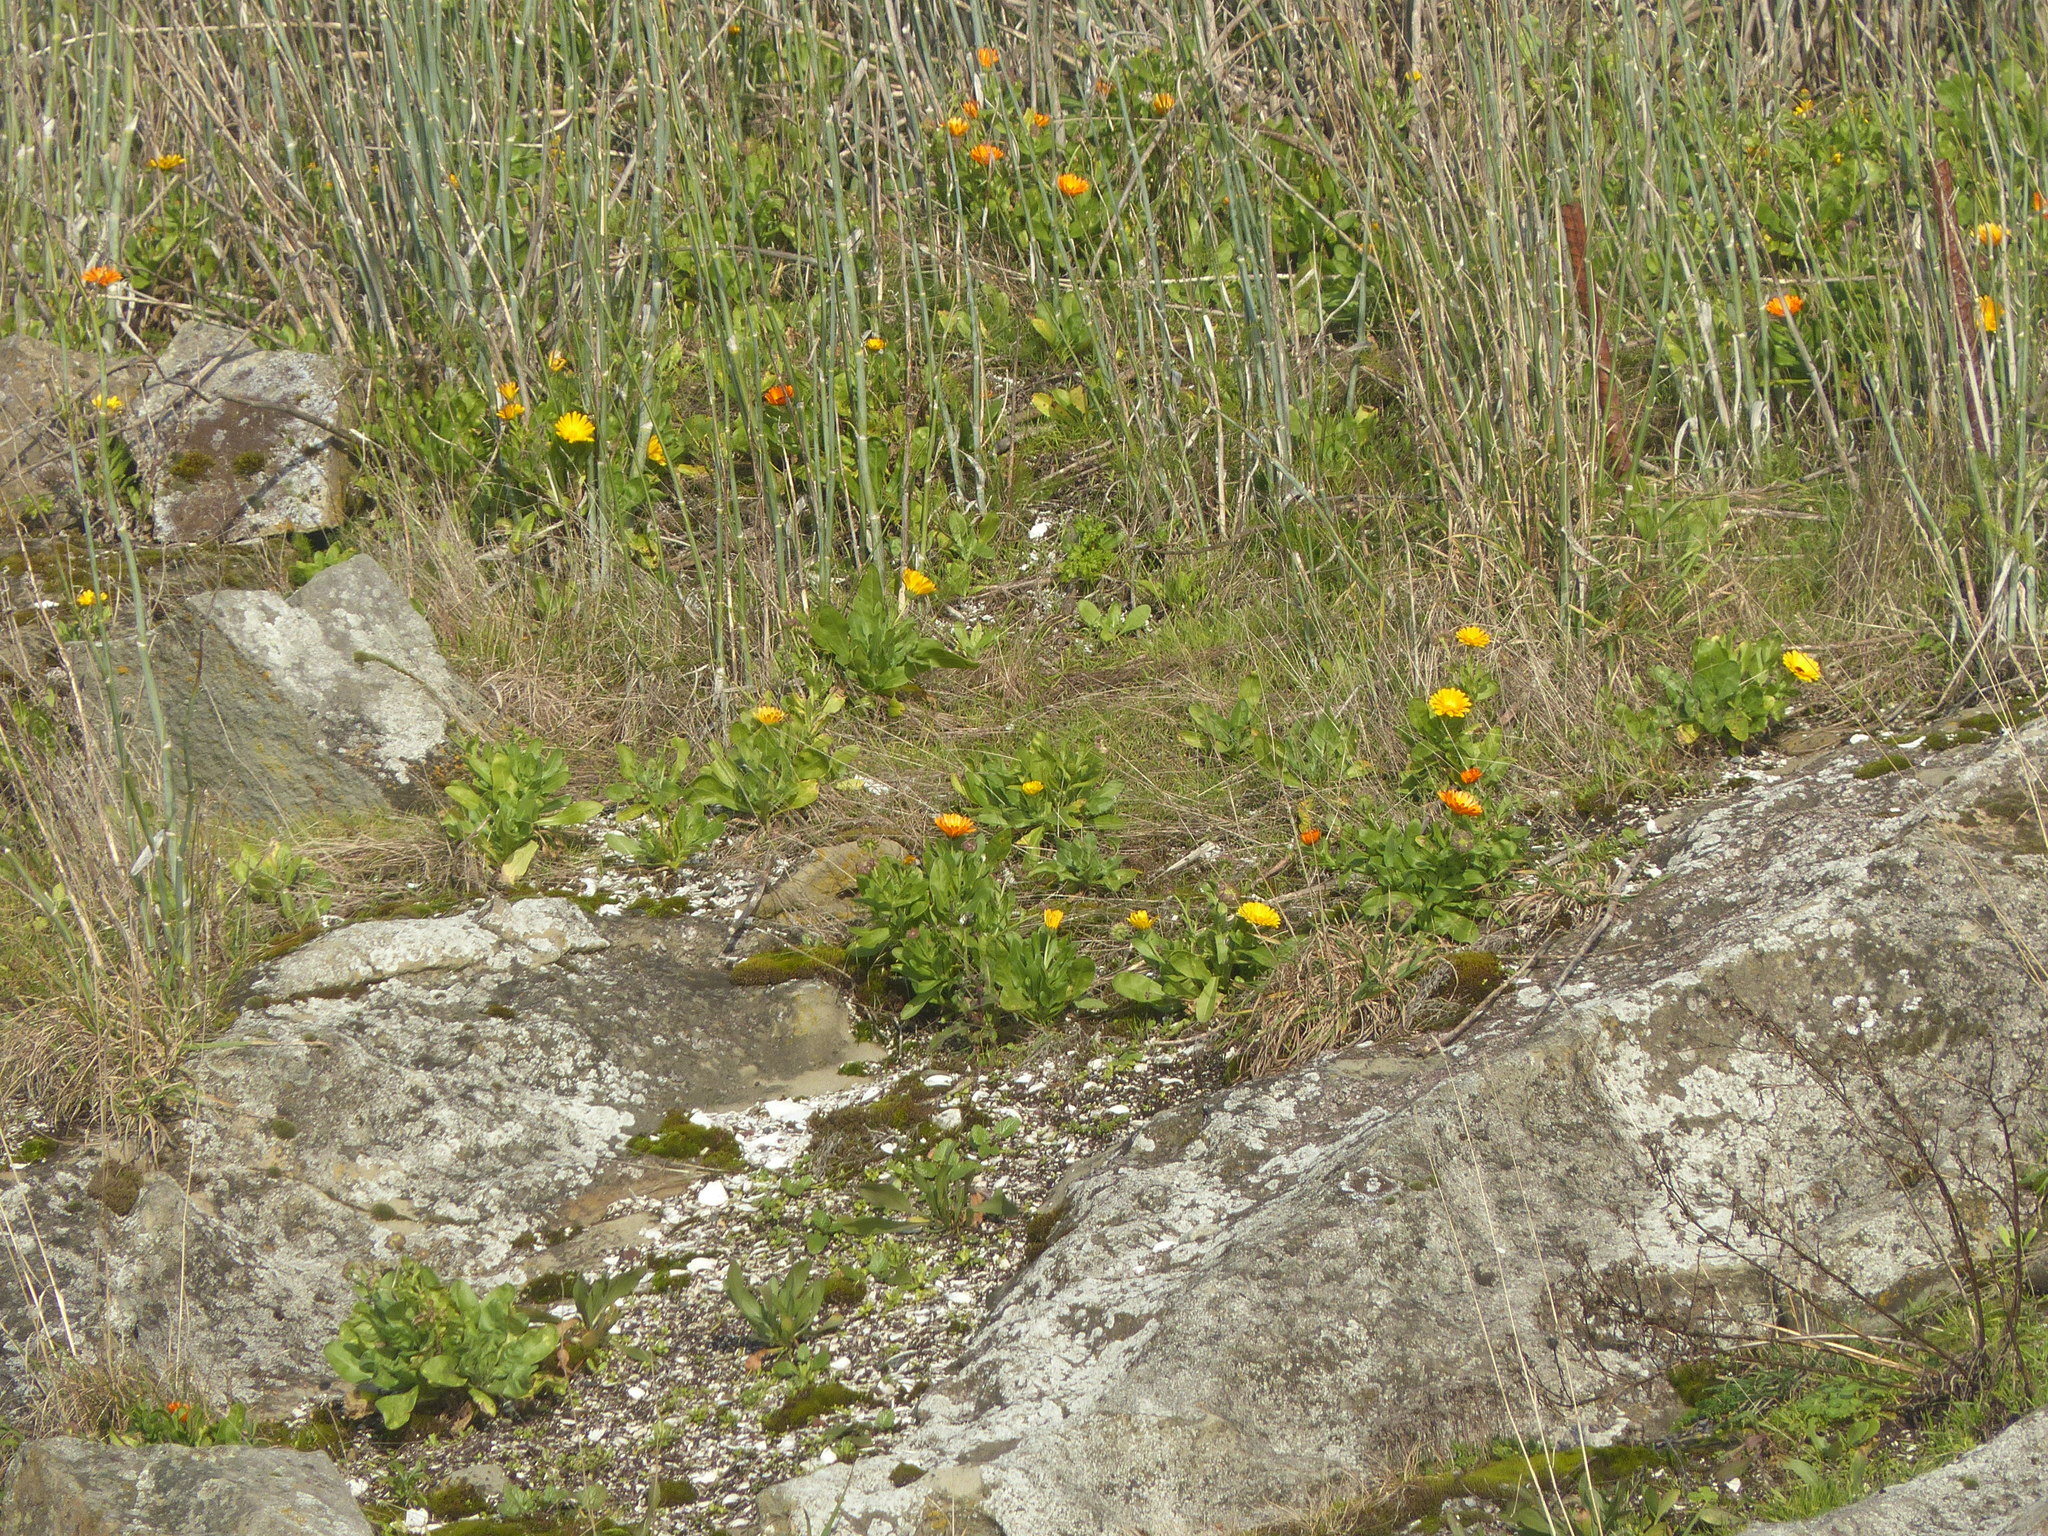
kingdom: Plantae
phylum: Tracheophyta
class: Magnoliopsida
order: Asterales
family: Asteraceae
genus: Calendula
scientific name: Calendula officinalis
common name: Pot marigold
